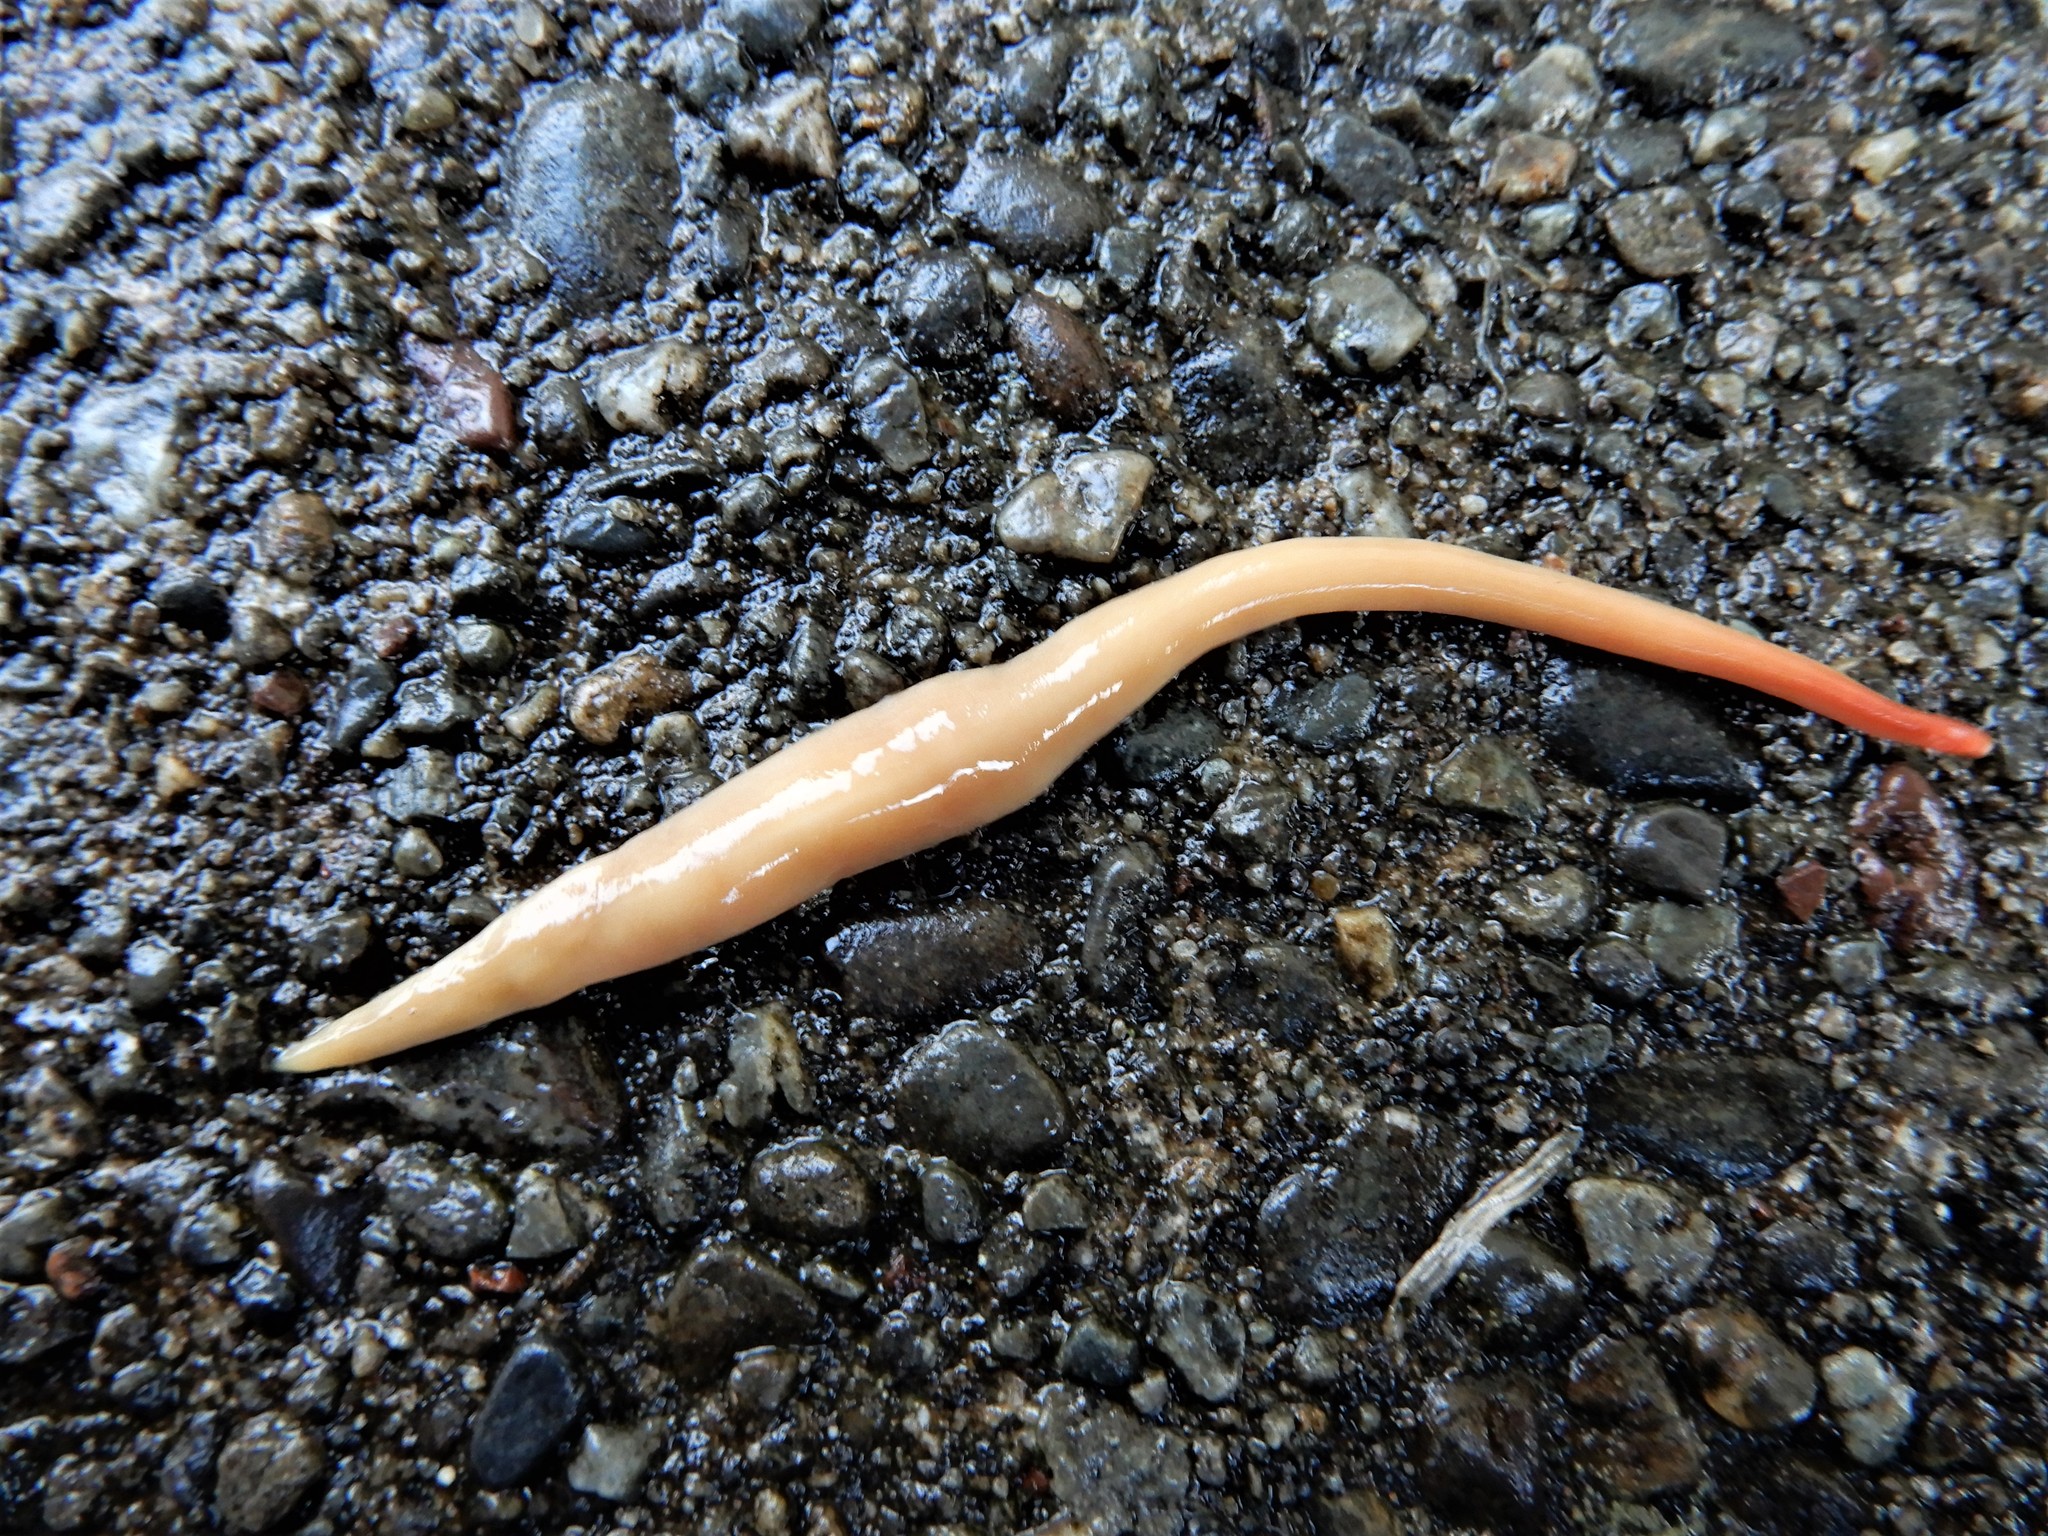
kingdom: Animalia
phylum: Platyhelminthes
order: Tricladida
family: Geoplanidae
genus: Australoplana
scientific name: Australoplana sanguinea
